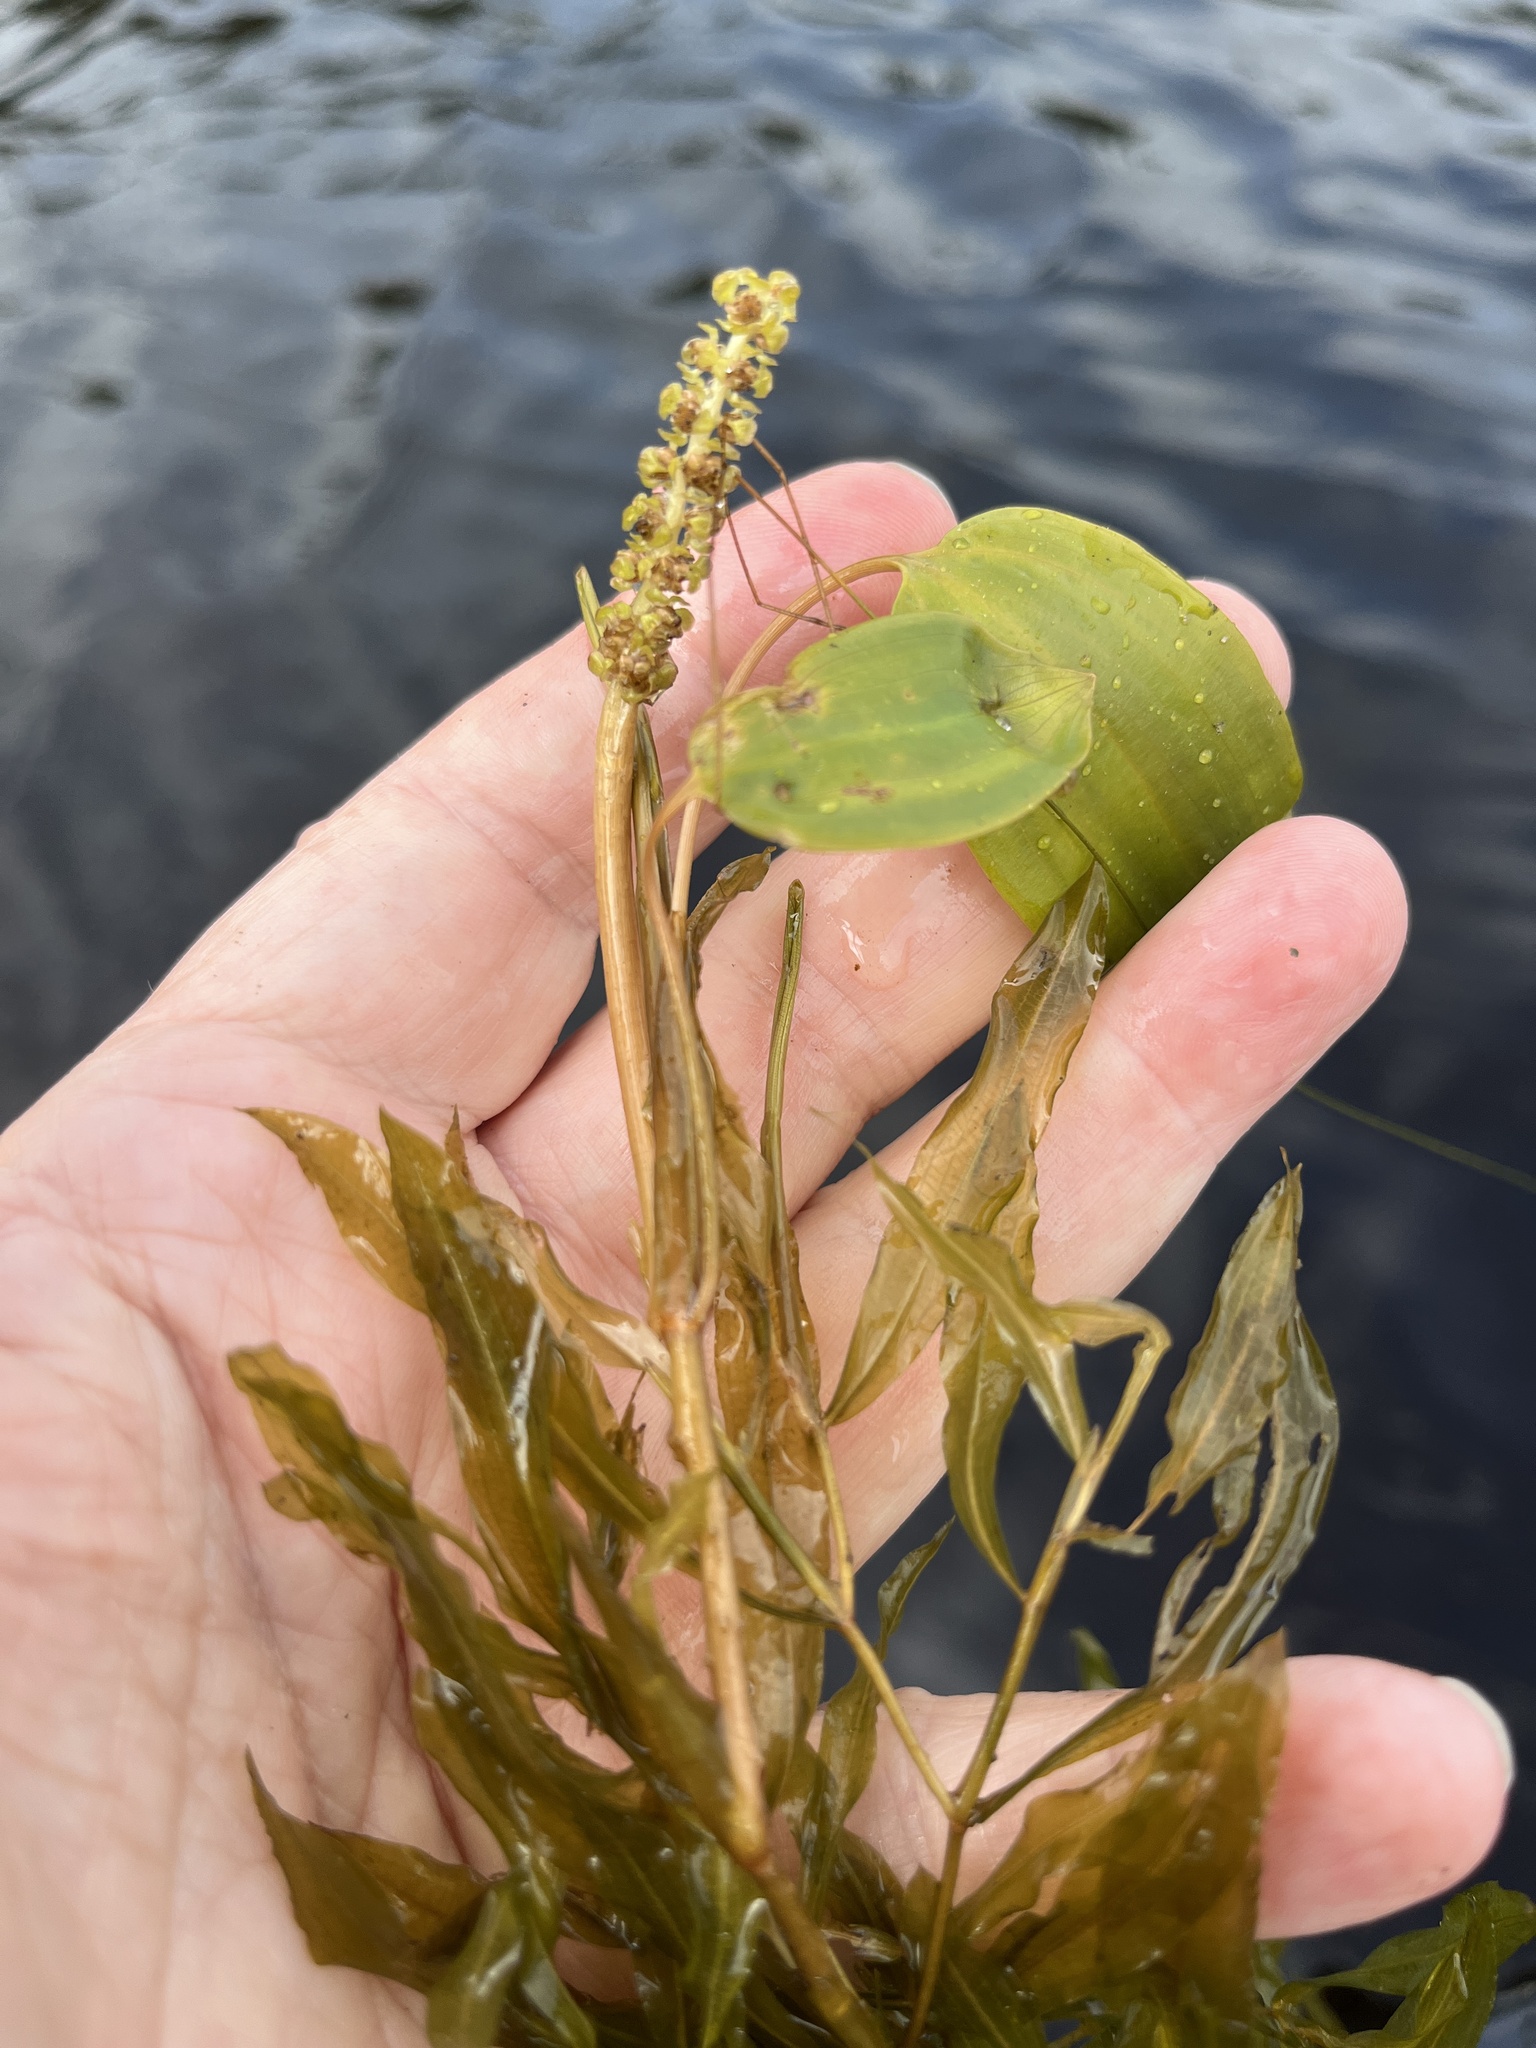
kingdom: Plantae
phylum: Tracheophyta
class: Liliopsida
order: Alismatales
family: Potamogetonaceae
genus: Potamogeton
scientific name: Potamogeton gramineus
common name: Various-leaved pondweed
